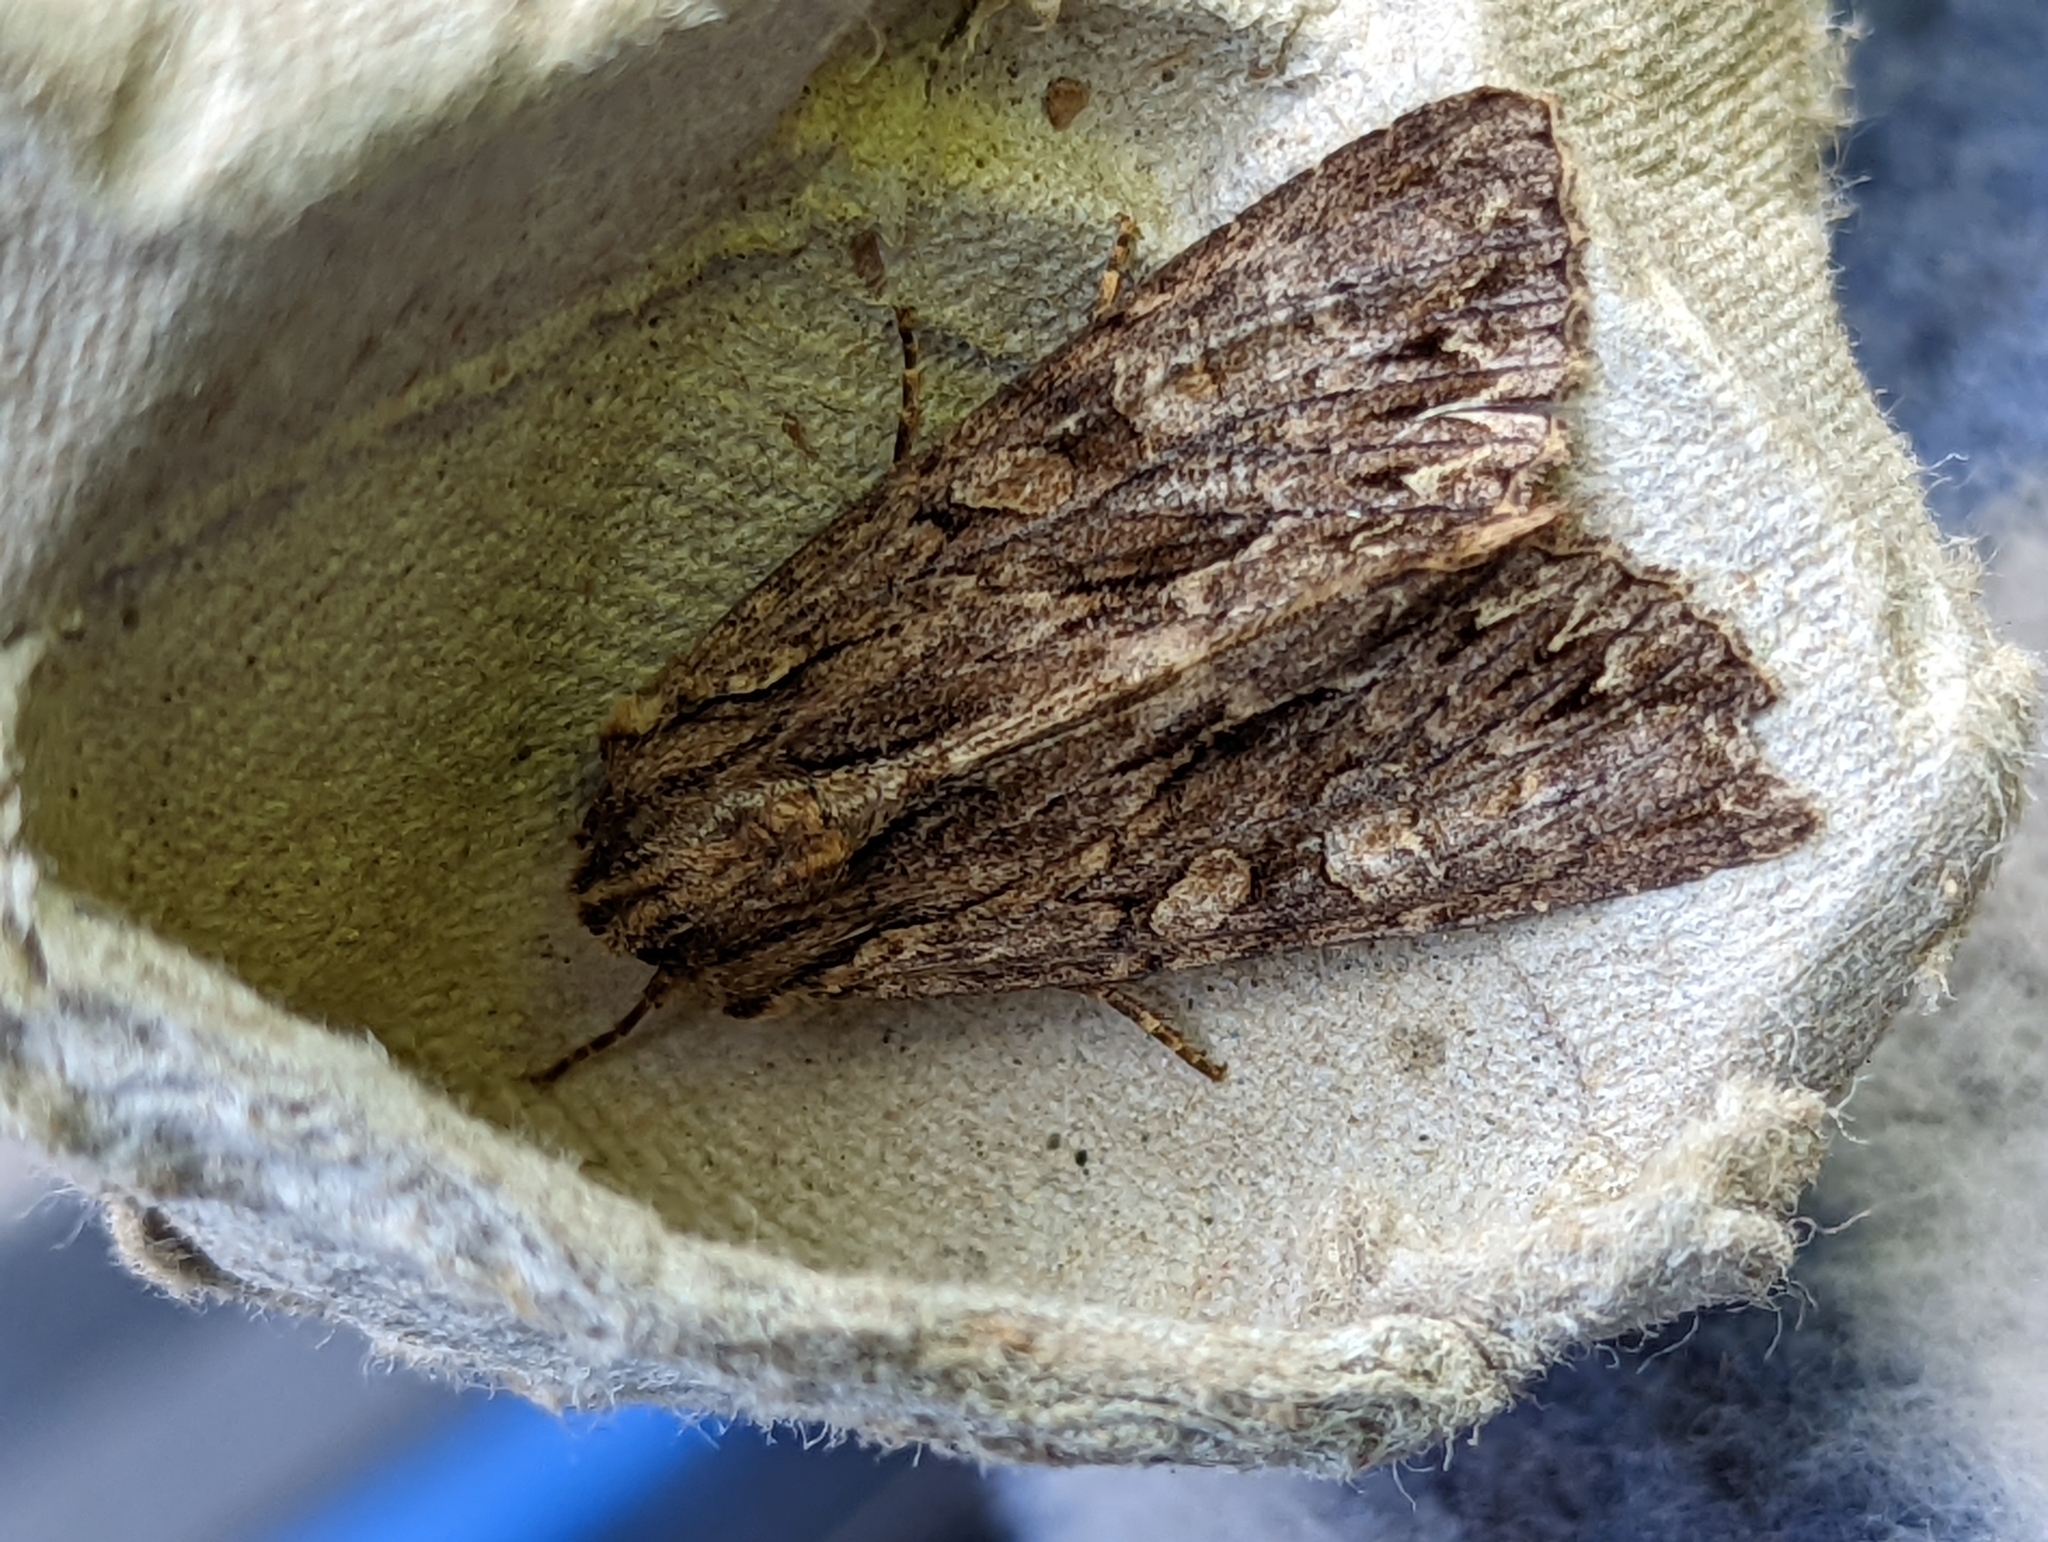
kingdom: Animalia
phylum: Arthropoda
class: Insecta
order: Lepidoptera
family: Noctuidae
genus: Apamea
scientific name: Apamea monoglypha
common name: Dark arches
